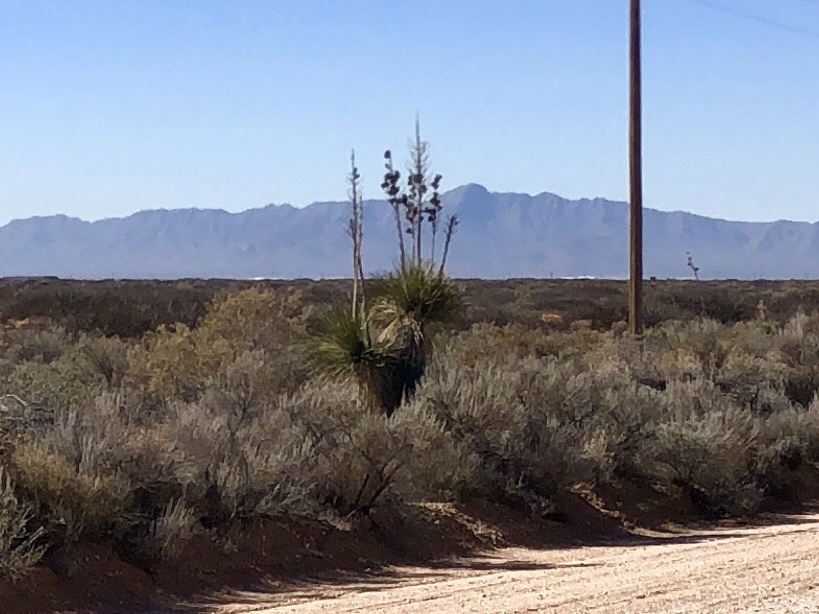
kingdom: Plantae
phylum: Tracheophyta
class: Liliopsida
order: Asparagales
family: Asparagaceae
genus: Yucca
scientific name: Yucca elata
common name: Palmella
